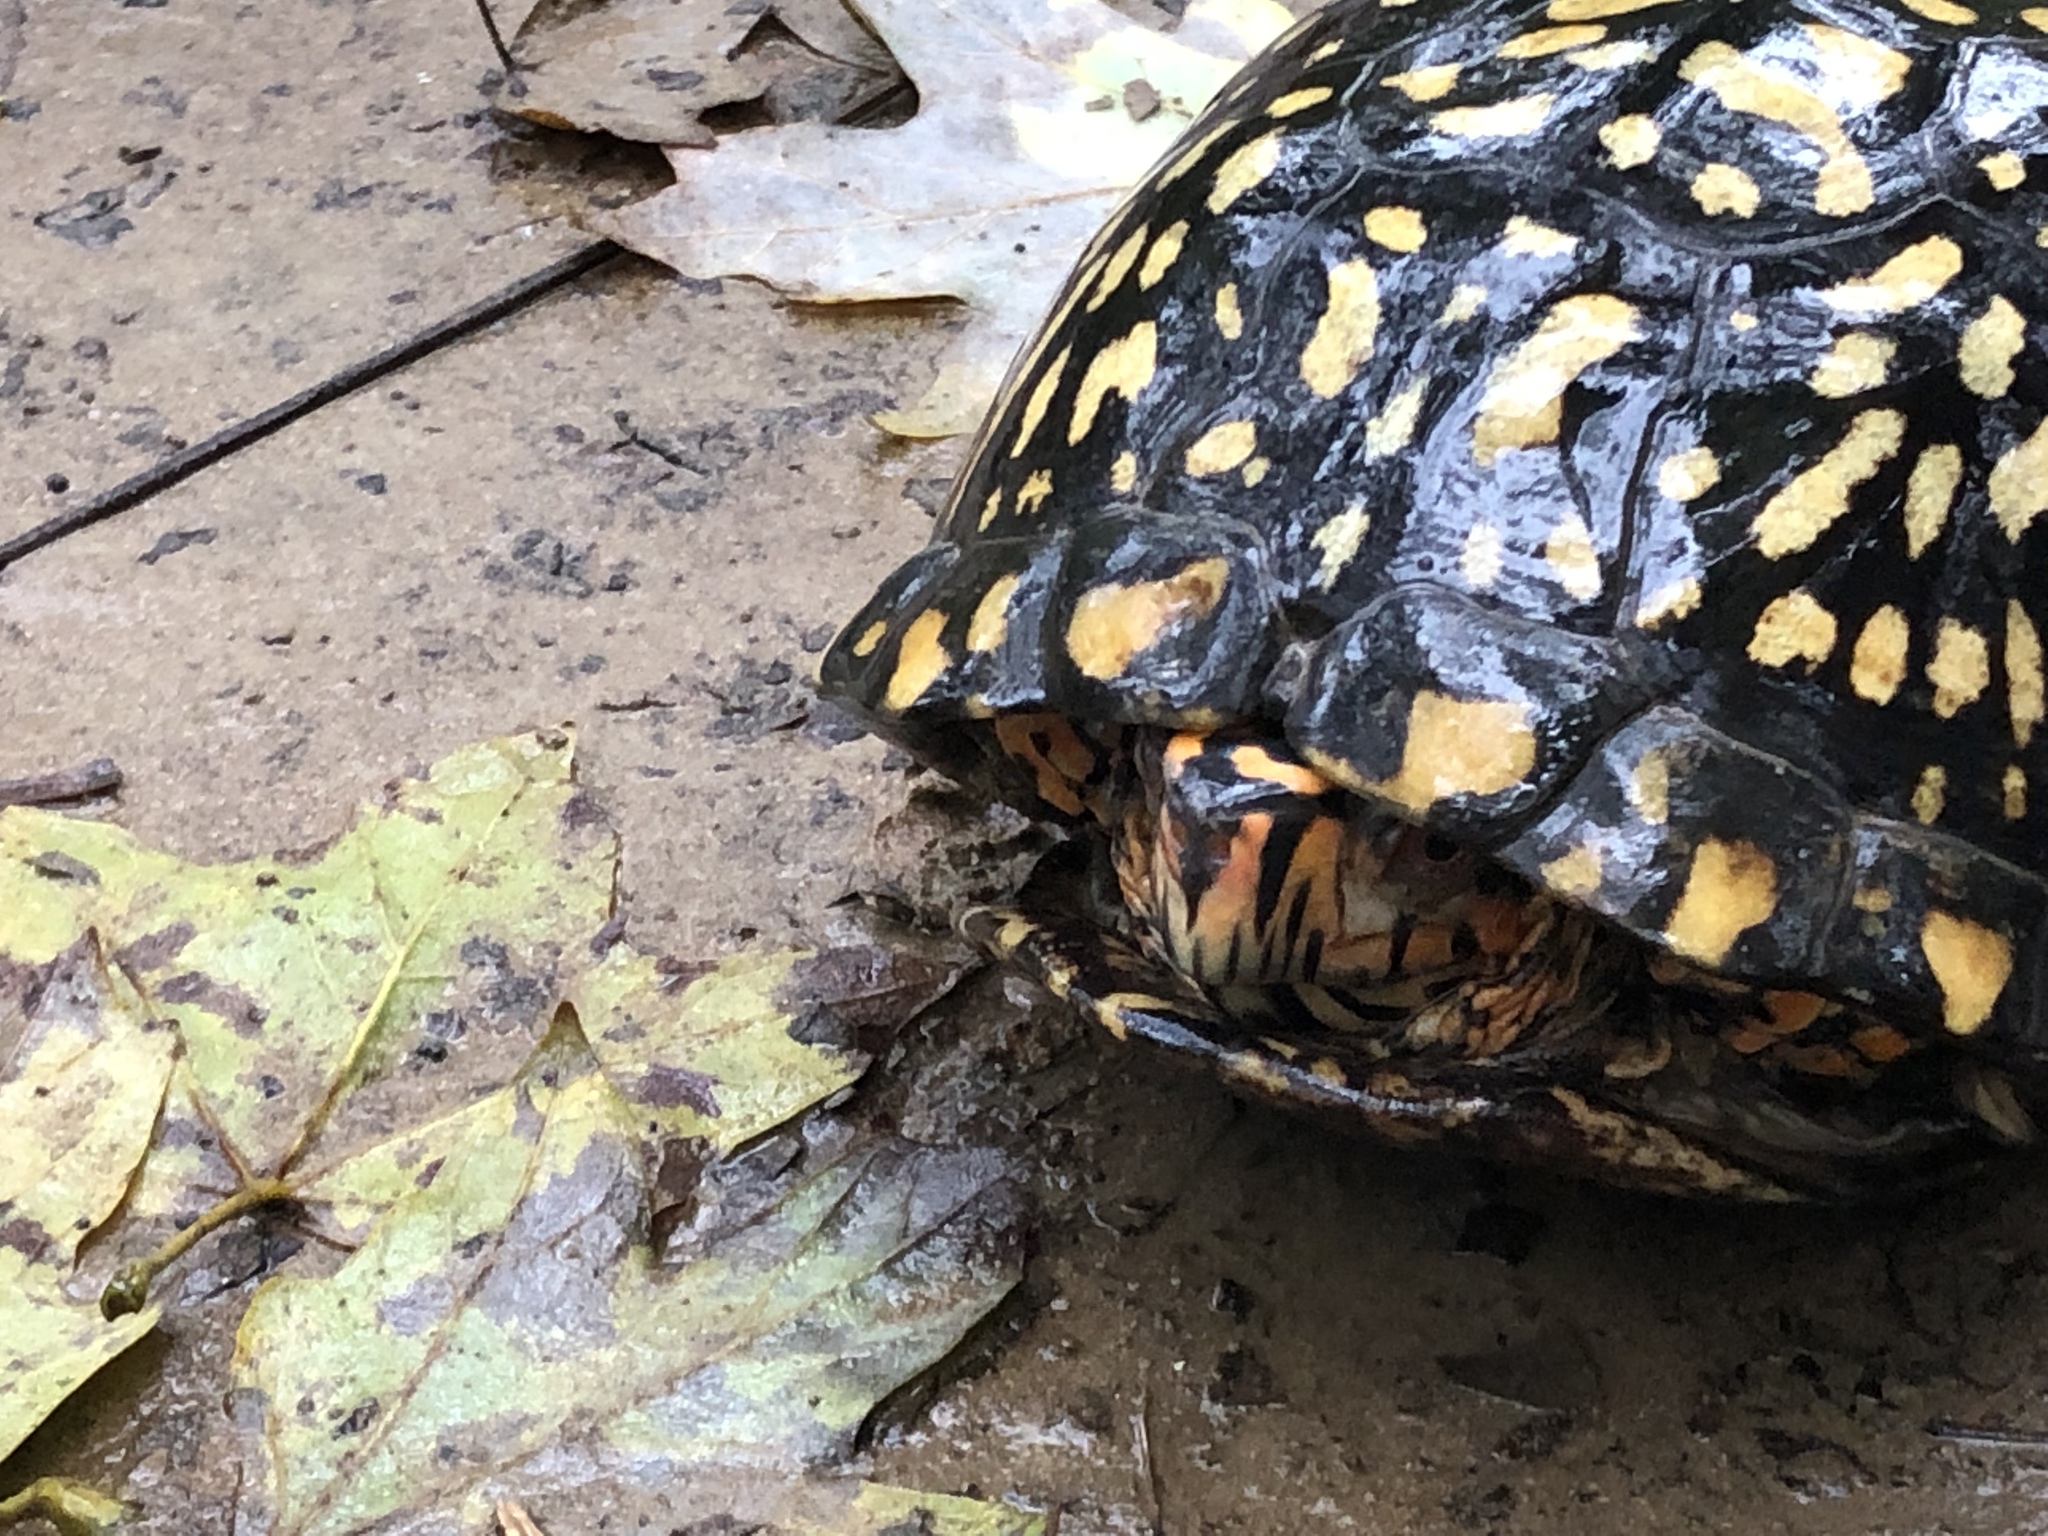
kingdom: Animalia
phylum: Chordata
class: Testudines
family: Emydidae
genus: Terrapene
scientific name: Terrapene carolina
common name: Common box turtle
